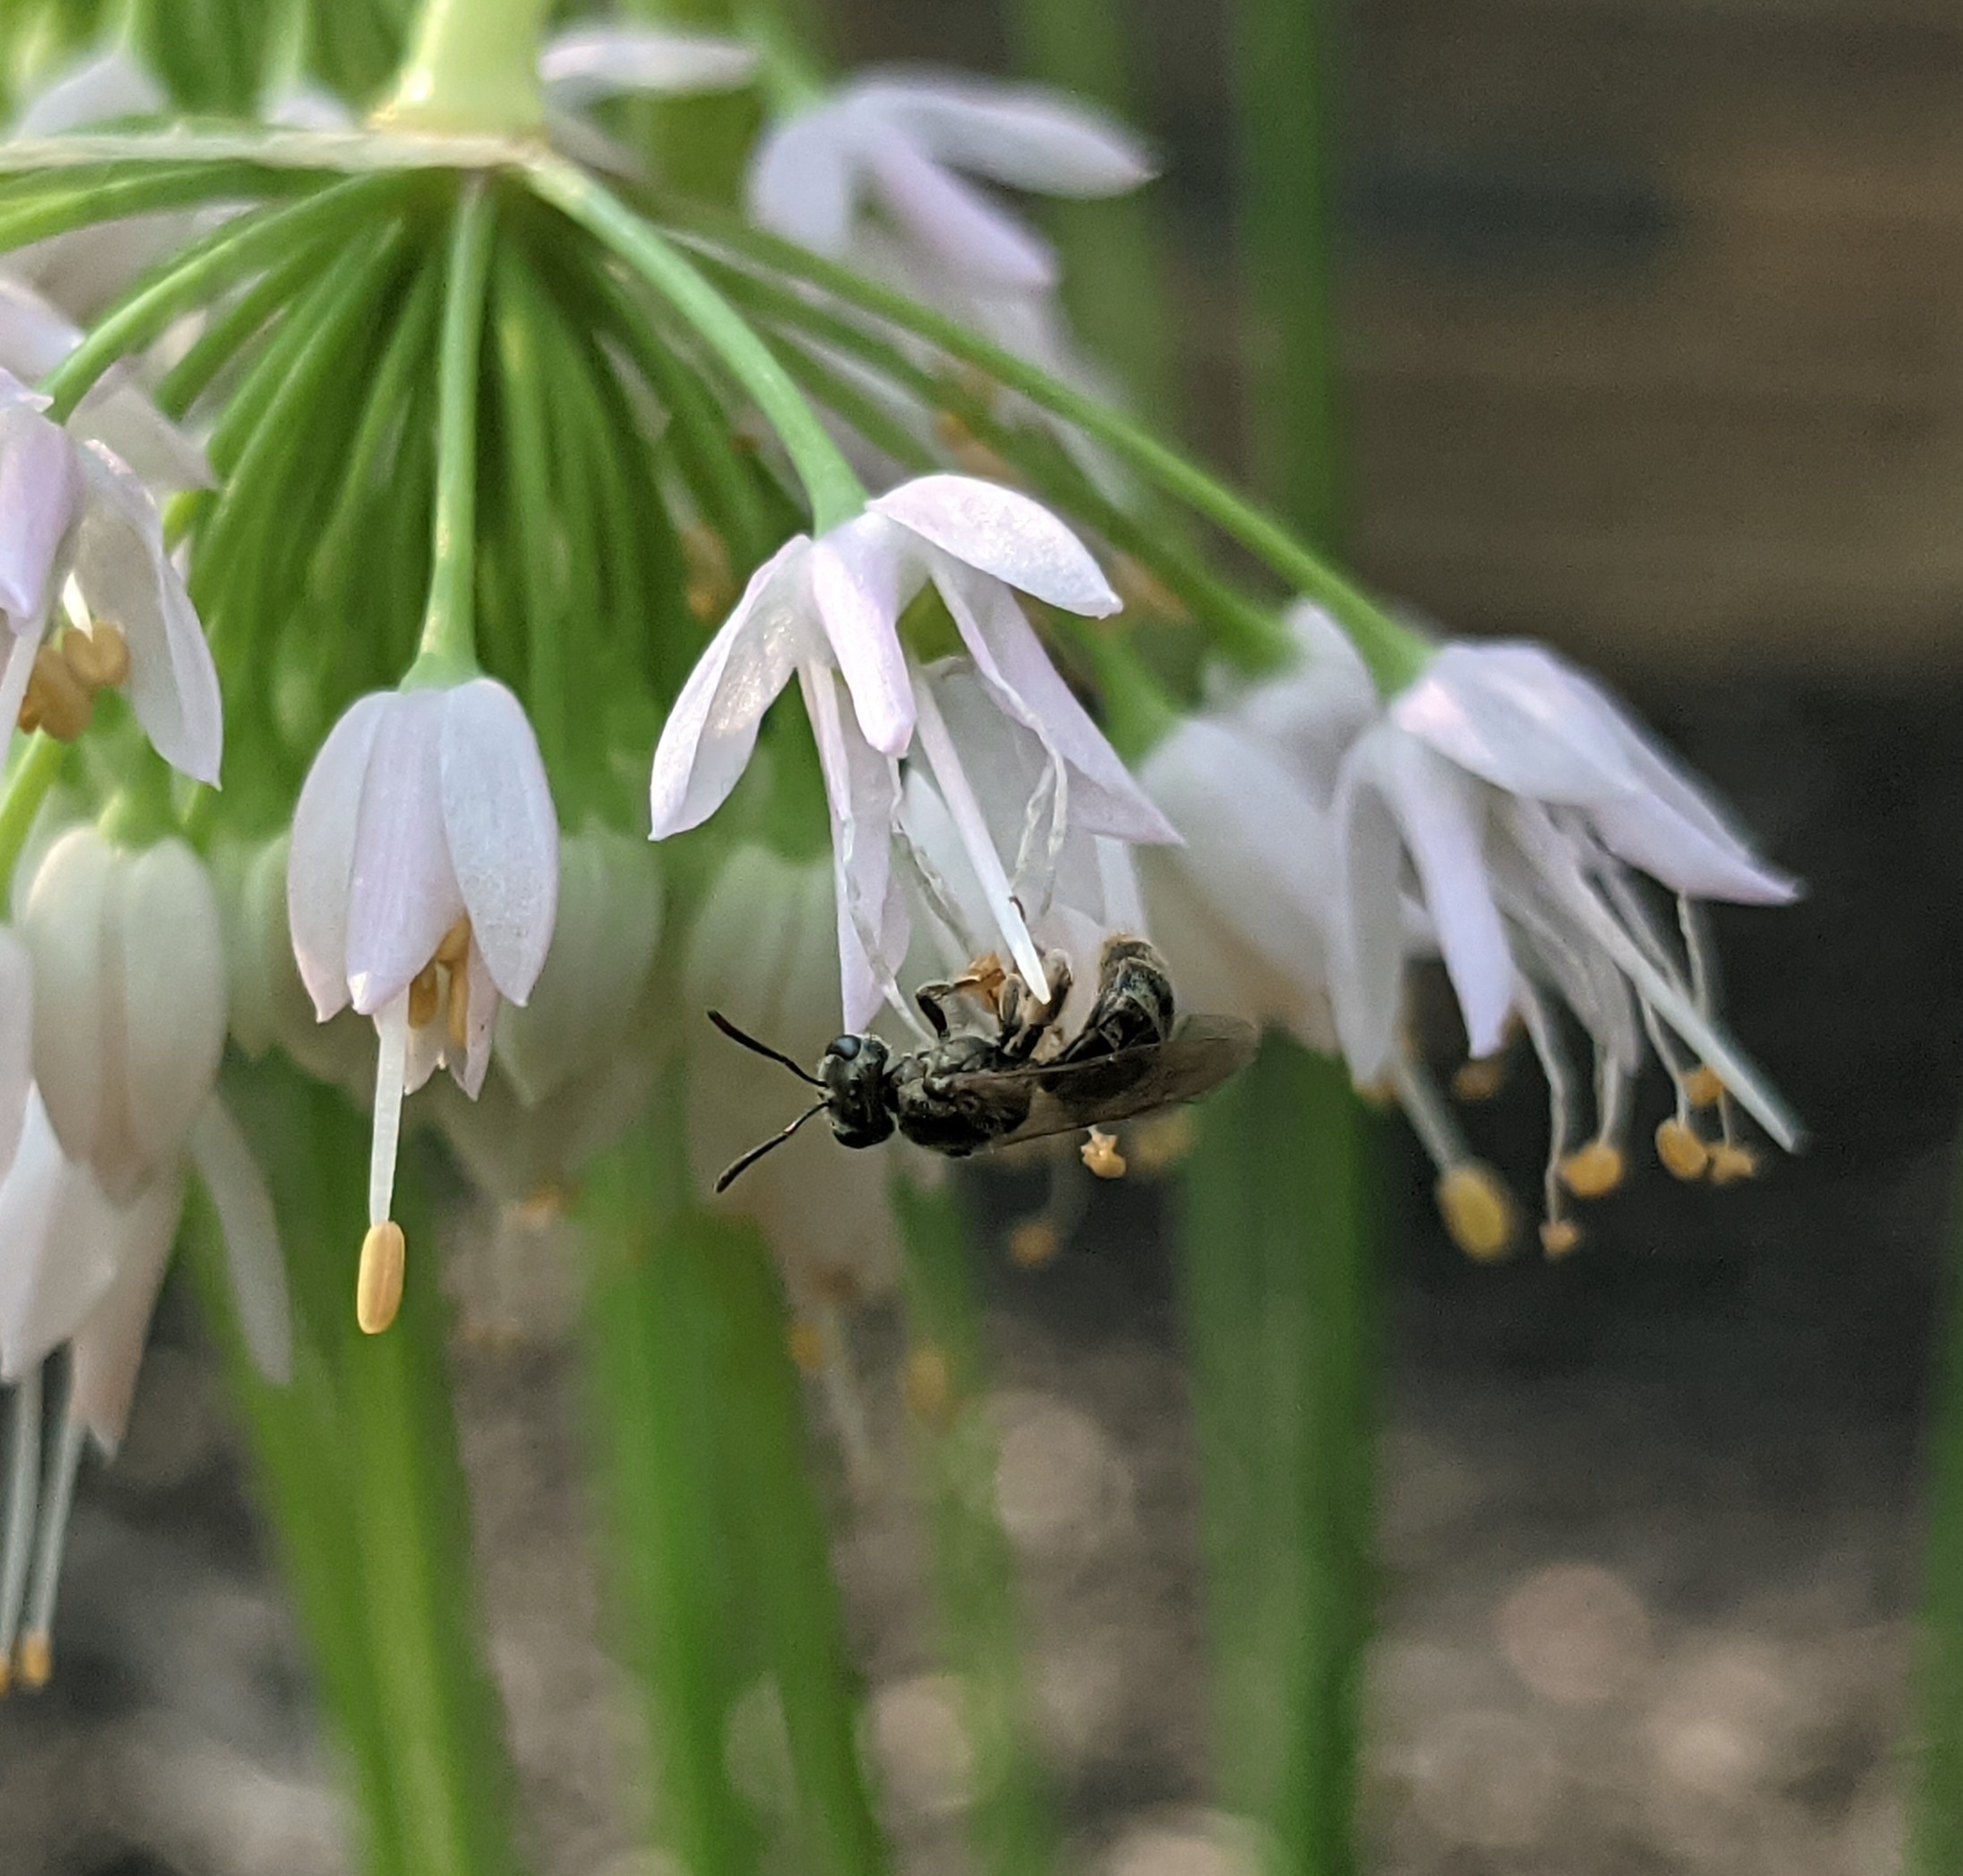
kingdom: Animalia
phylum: Arthropoda
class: Insecta
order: Hymenoptera
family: Halictidae
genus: Dialictus
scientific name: Dialictus
